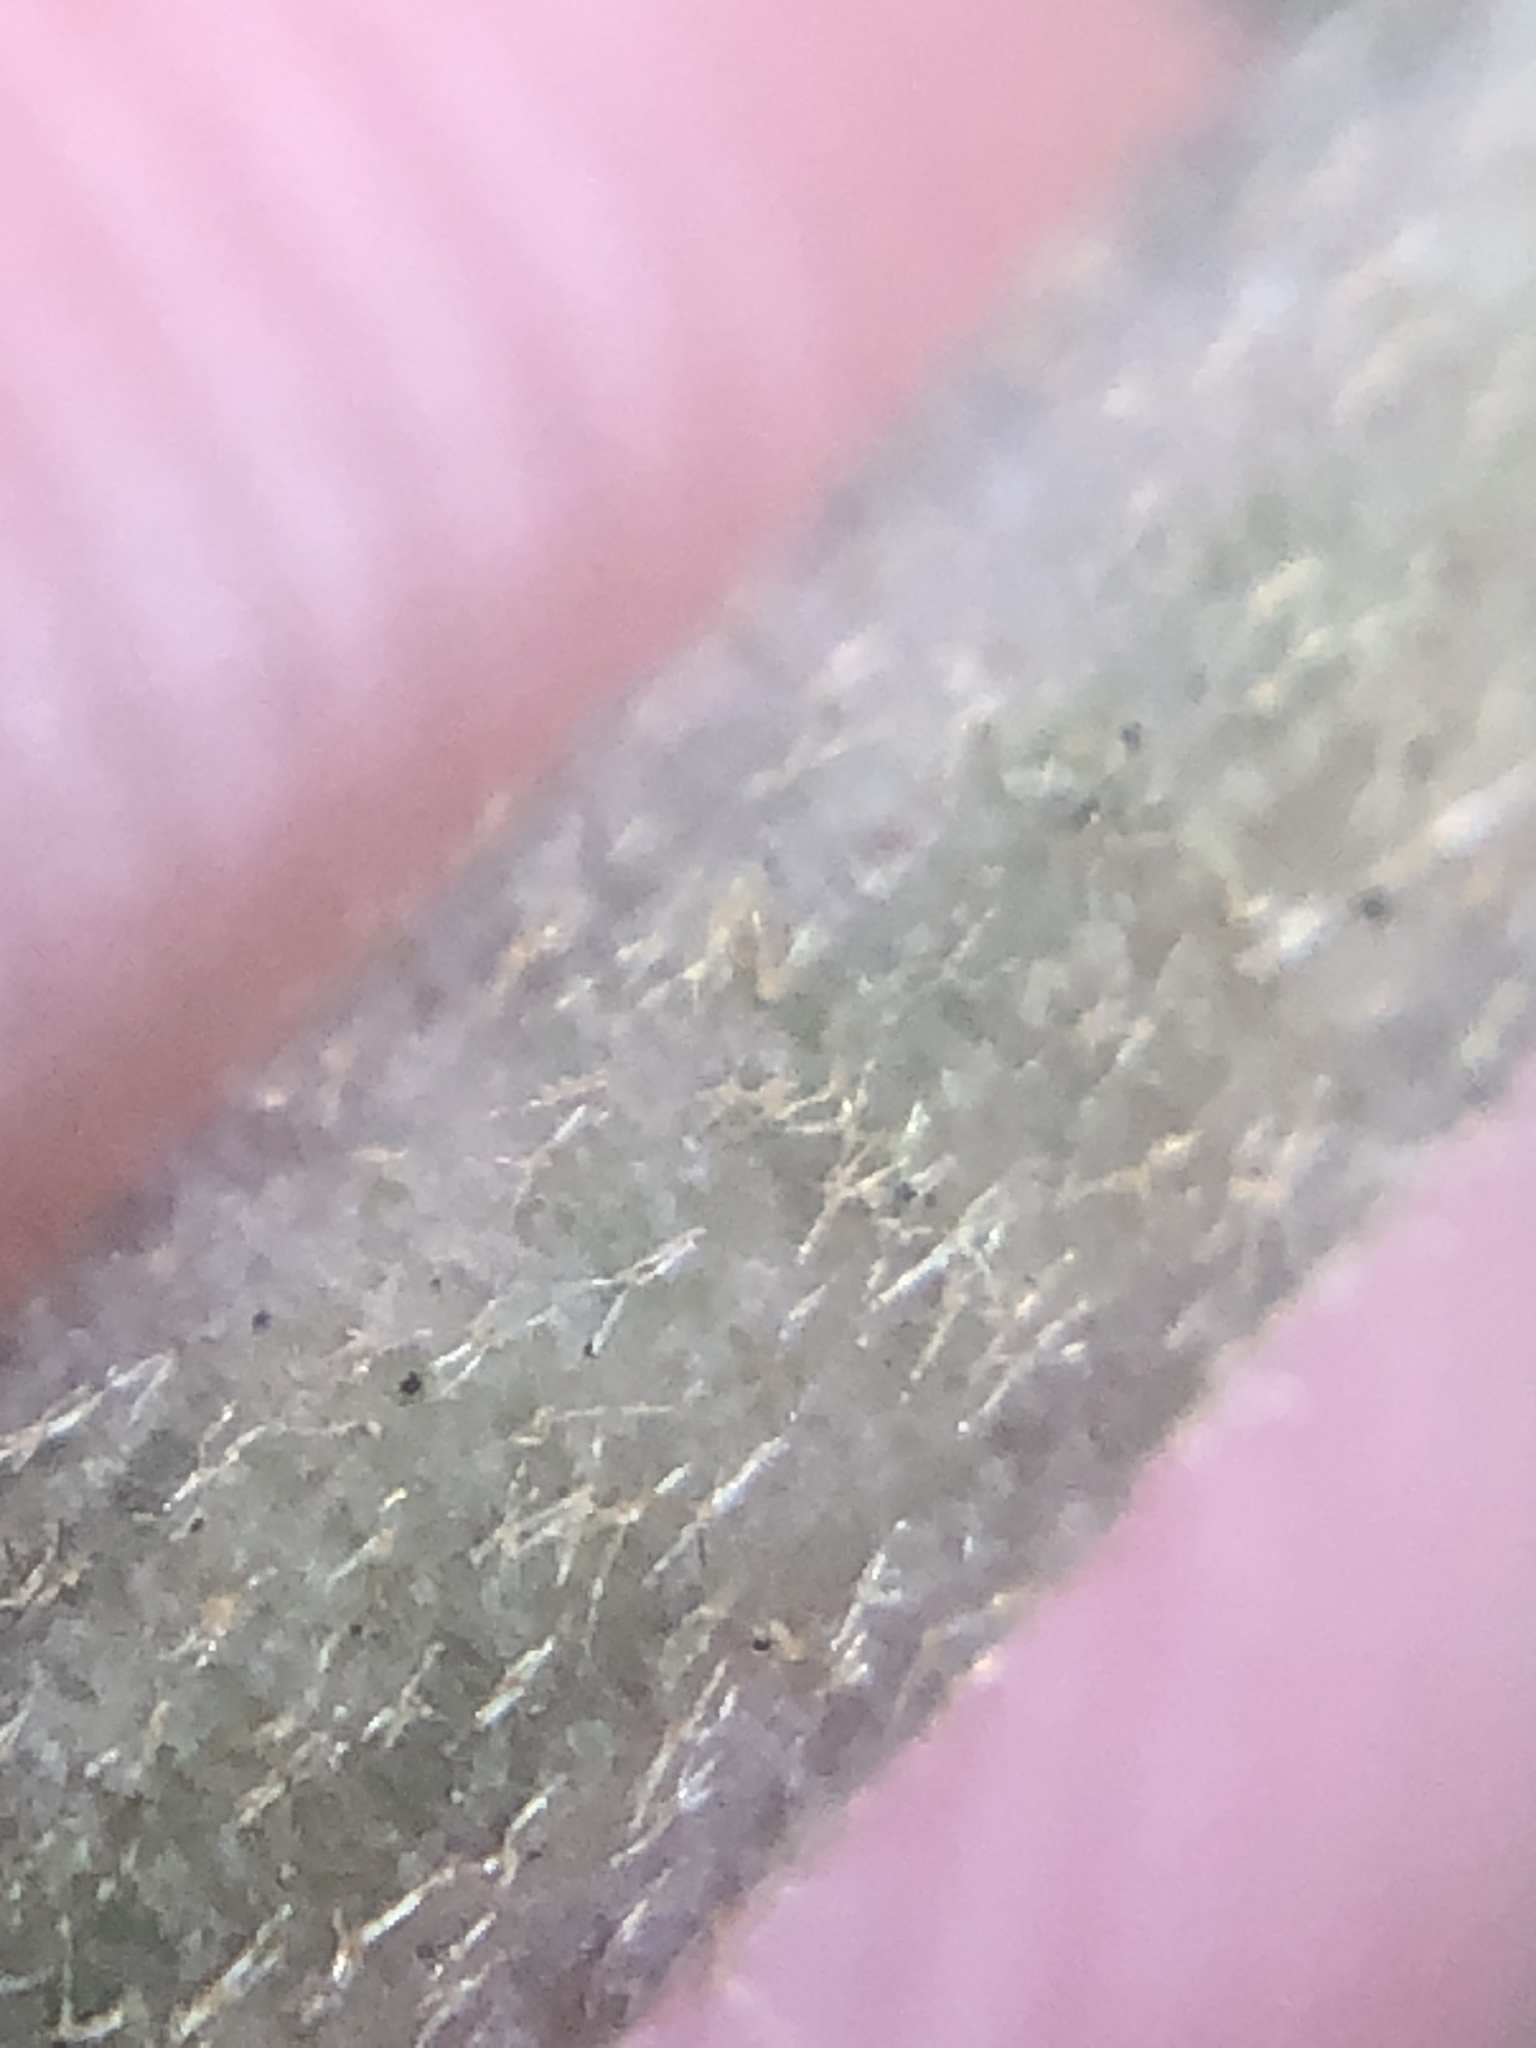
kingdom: Plantae
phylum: Tracheophyta
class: Magnoliopsida
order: Apiales
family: Araliaceae
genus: Hedera
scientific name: Hedera helix
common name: Ivy
